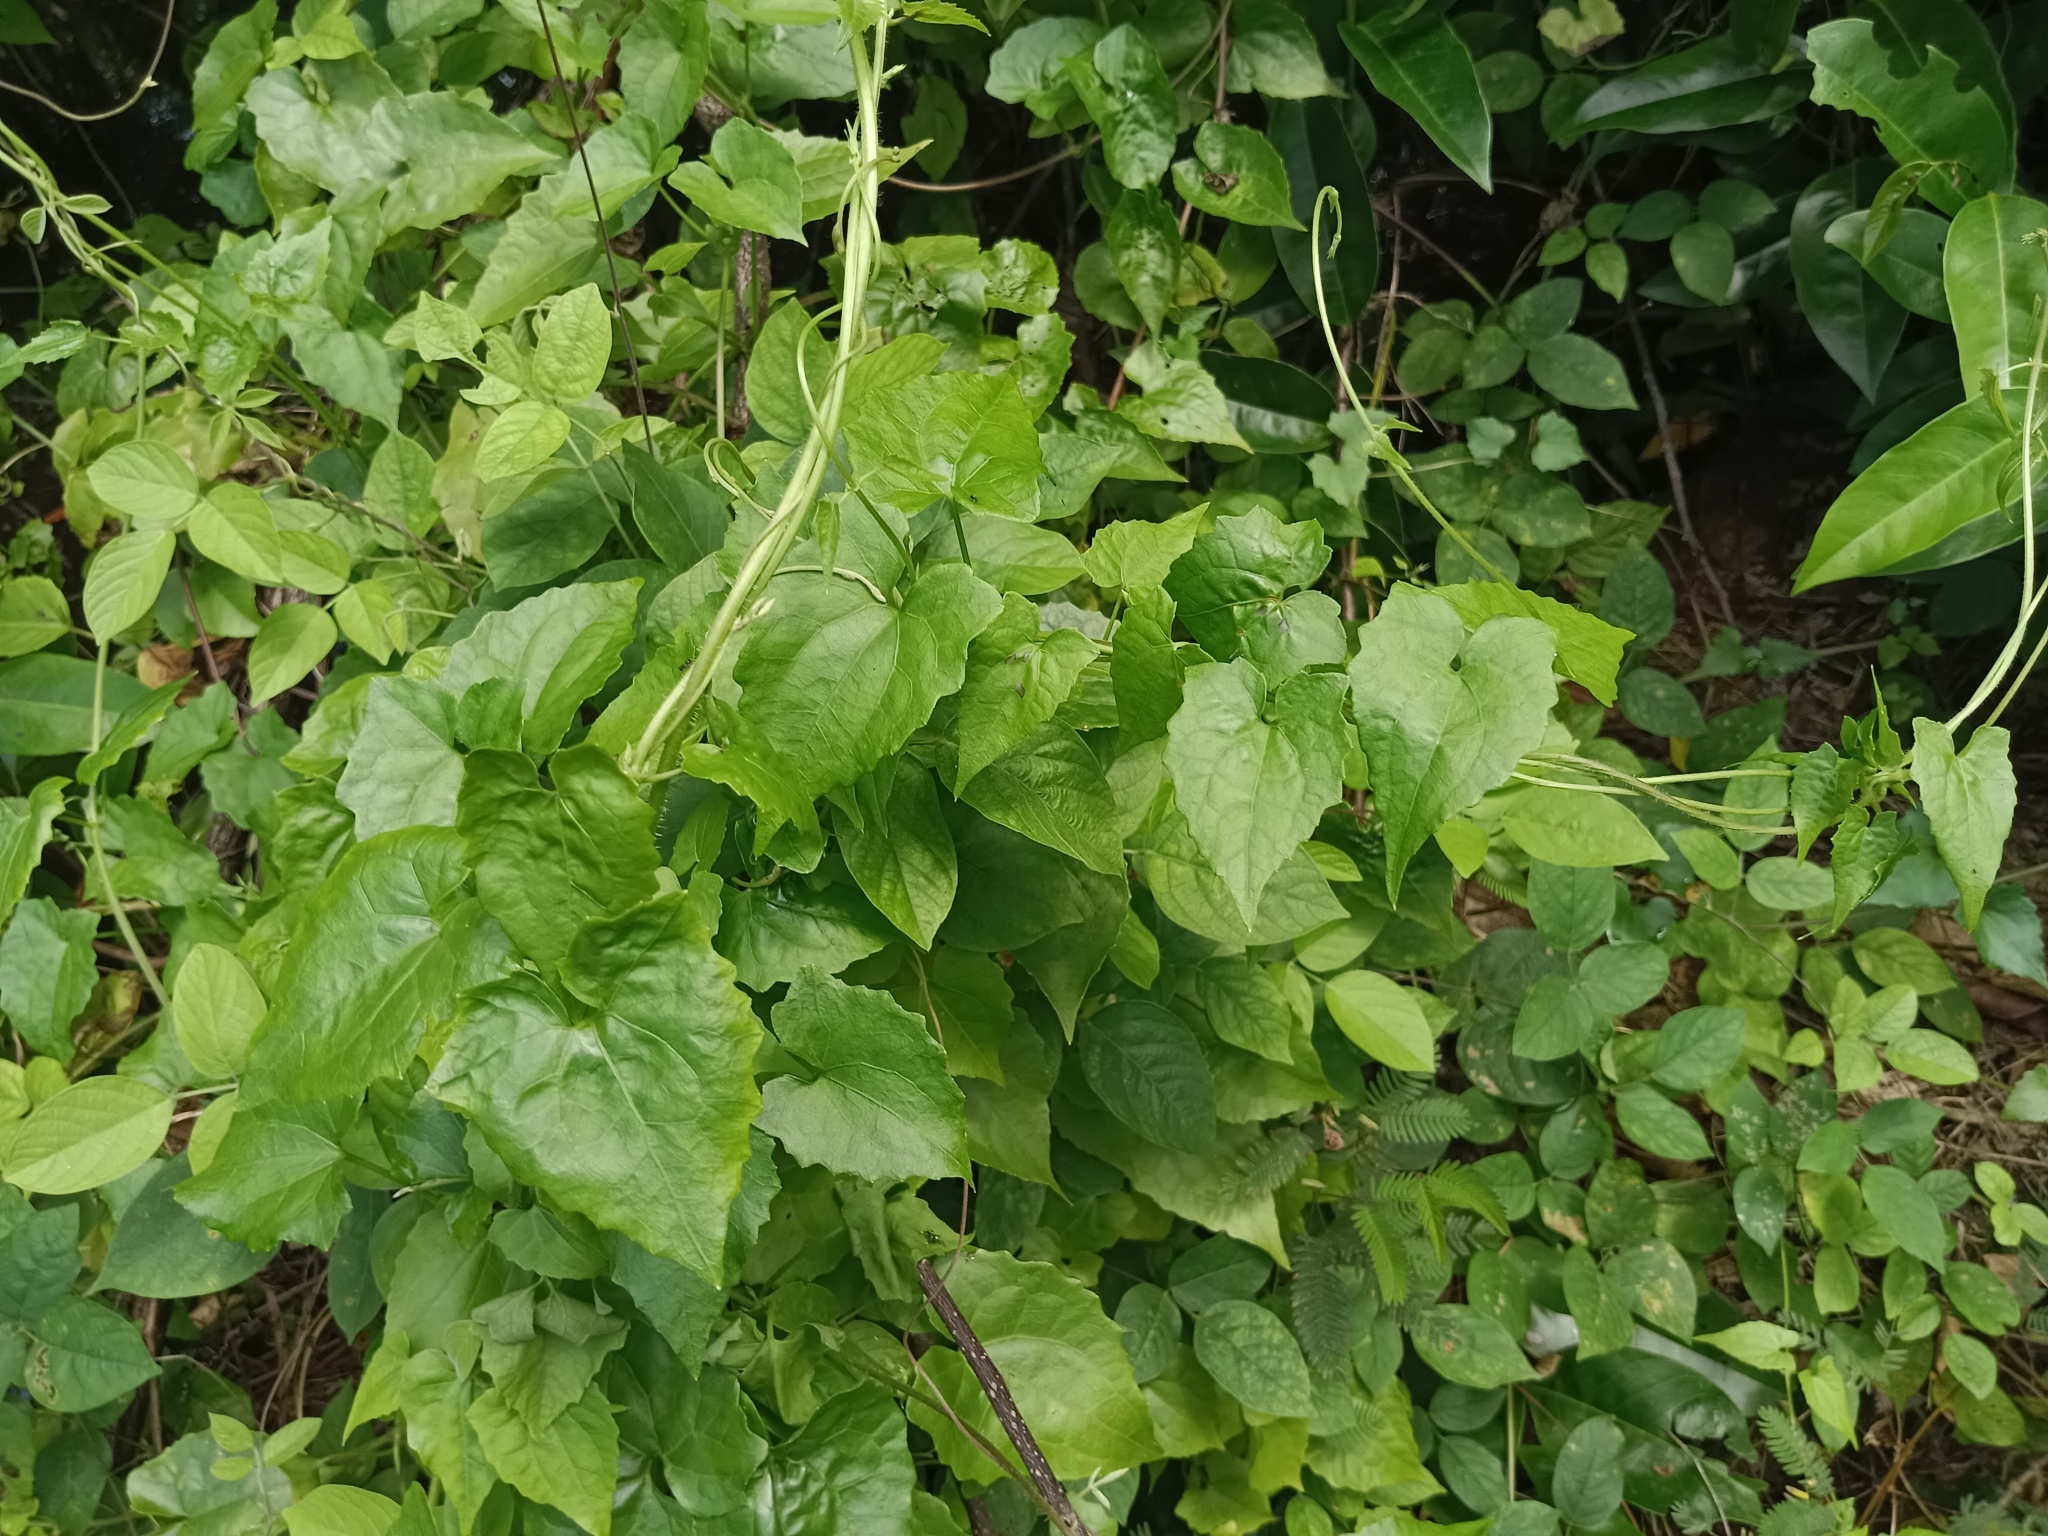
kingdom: Plantae
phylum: Tracheophyta
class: Magnoliopsida
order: Asterales
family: Asteraceae
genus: Mikania
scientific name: Mikania micrantha
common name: Mile-a-minute
